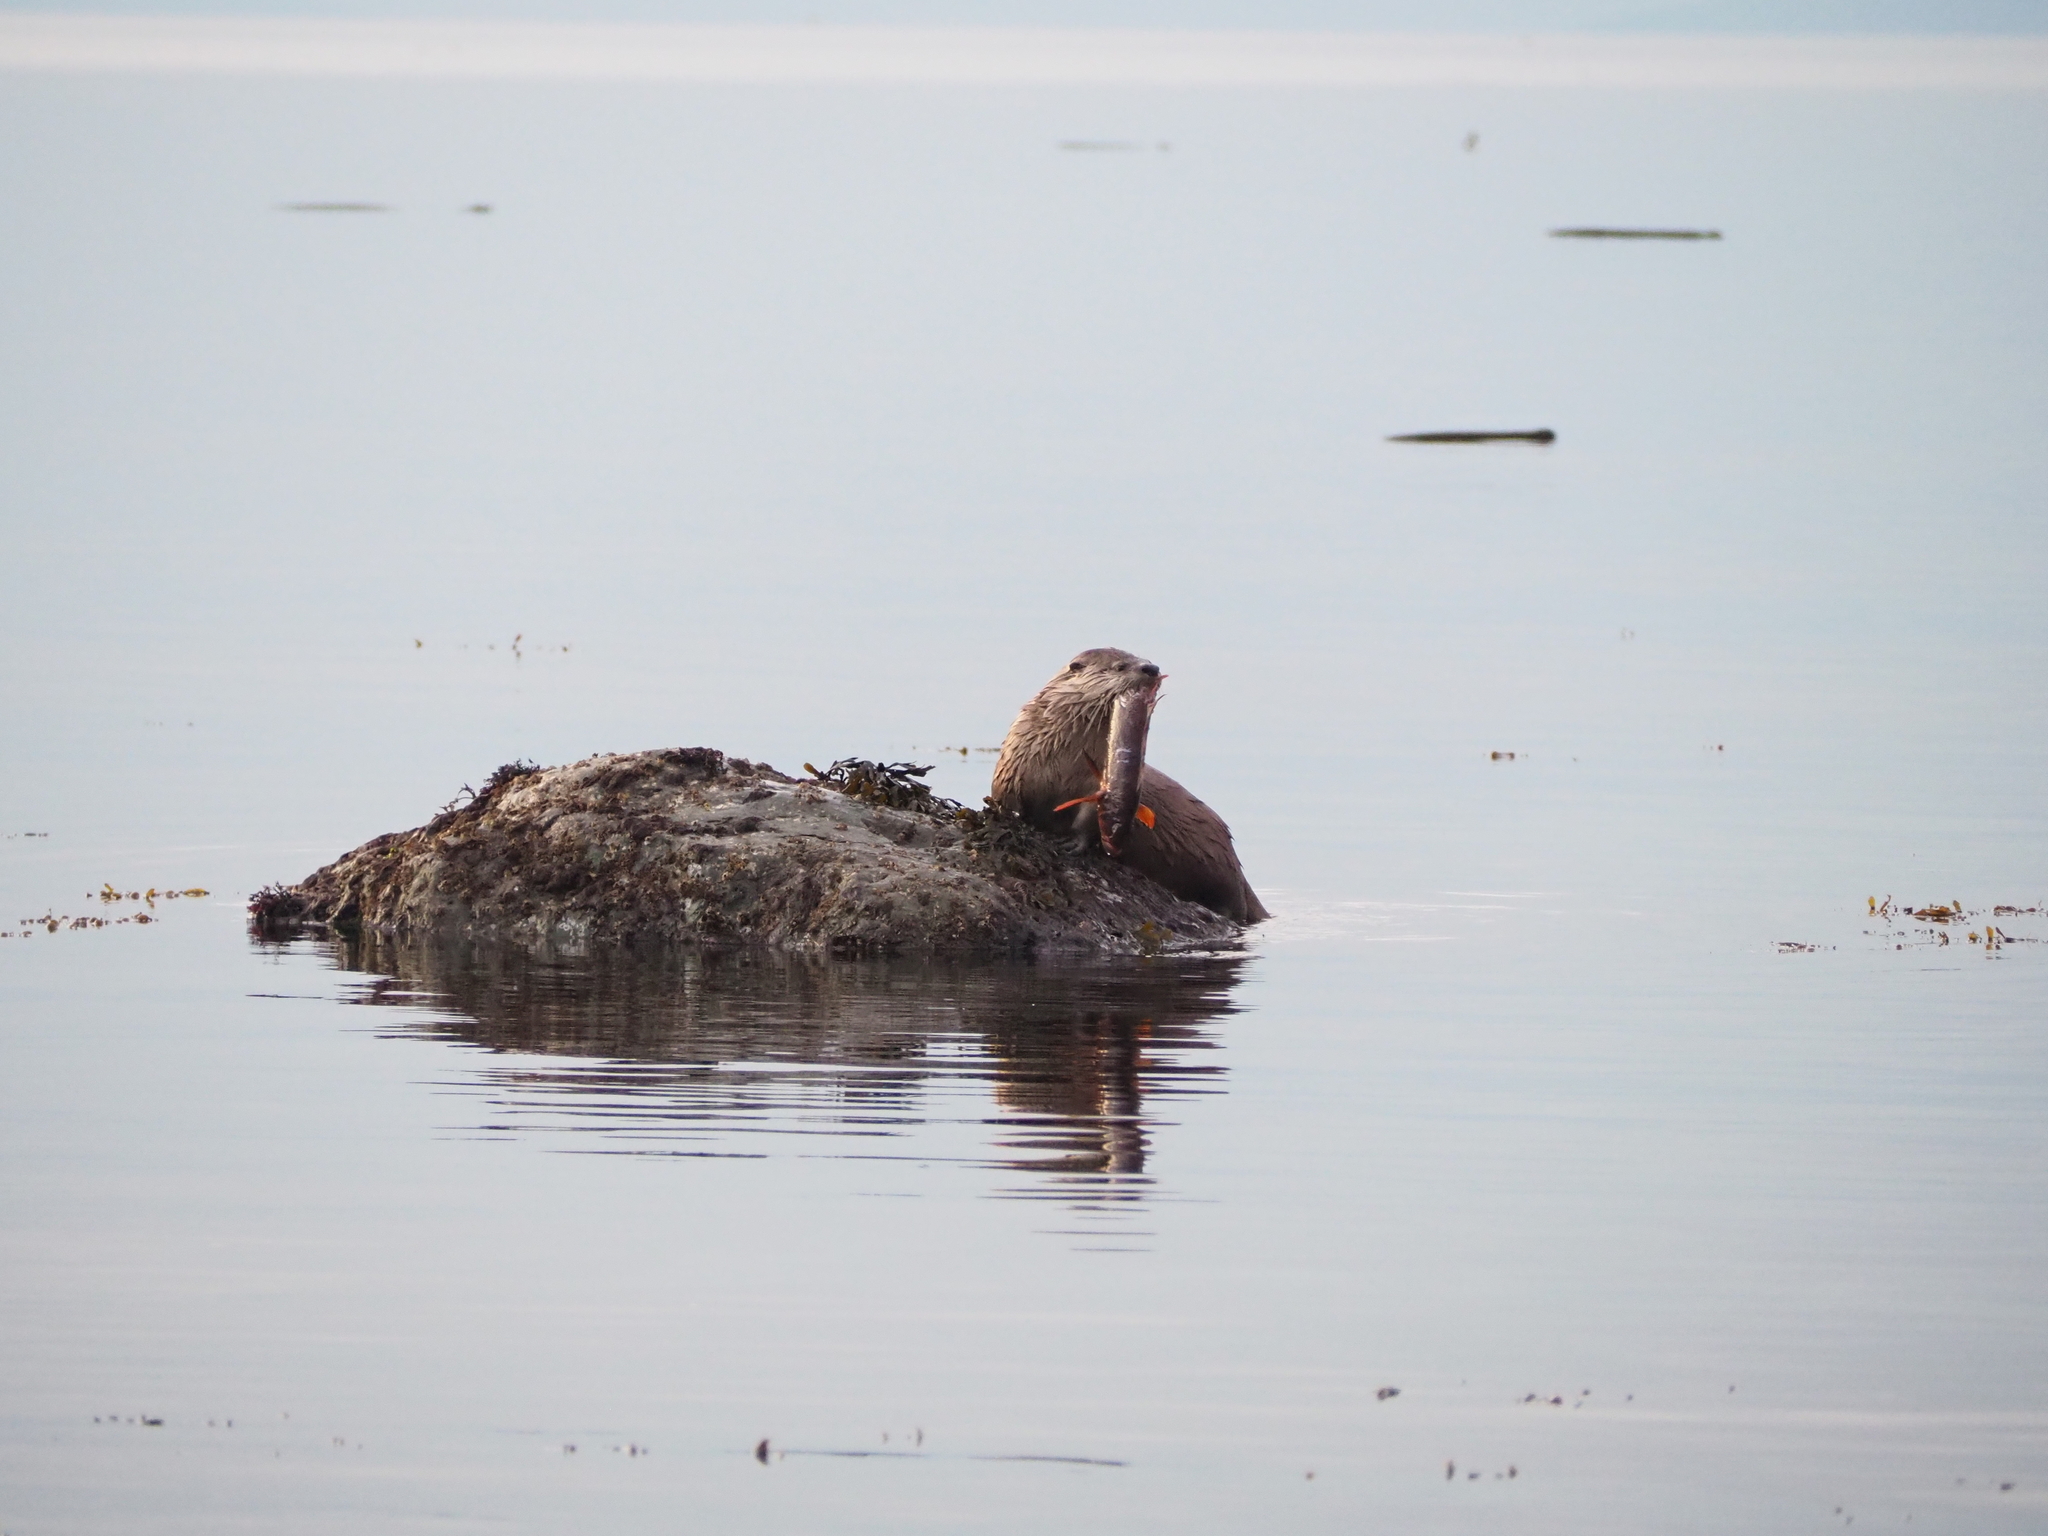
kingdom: Animalia
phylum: Chordata
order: Scorpaeniformes
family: Hexagrammidae
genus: Hexagrammos
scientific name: Hexagrammos decagrammus
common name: Kelp greenling
